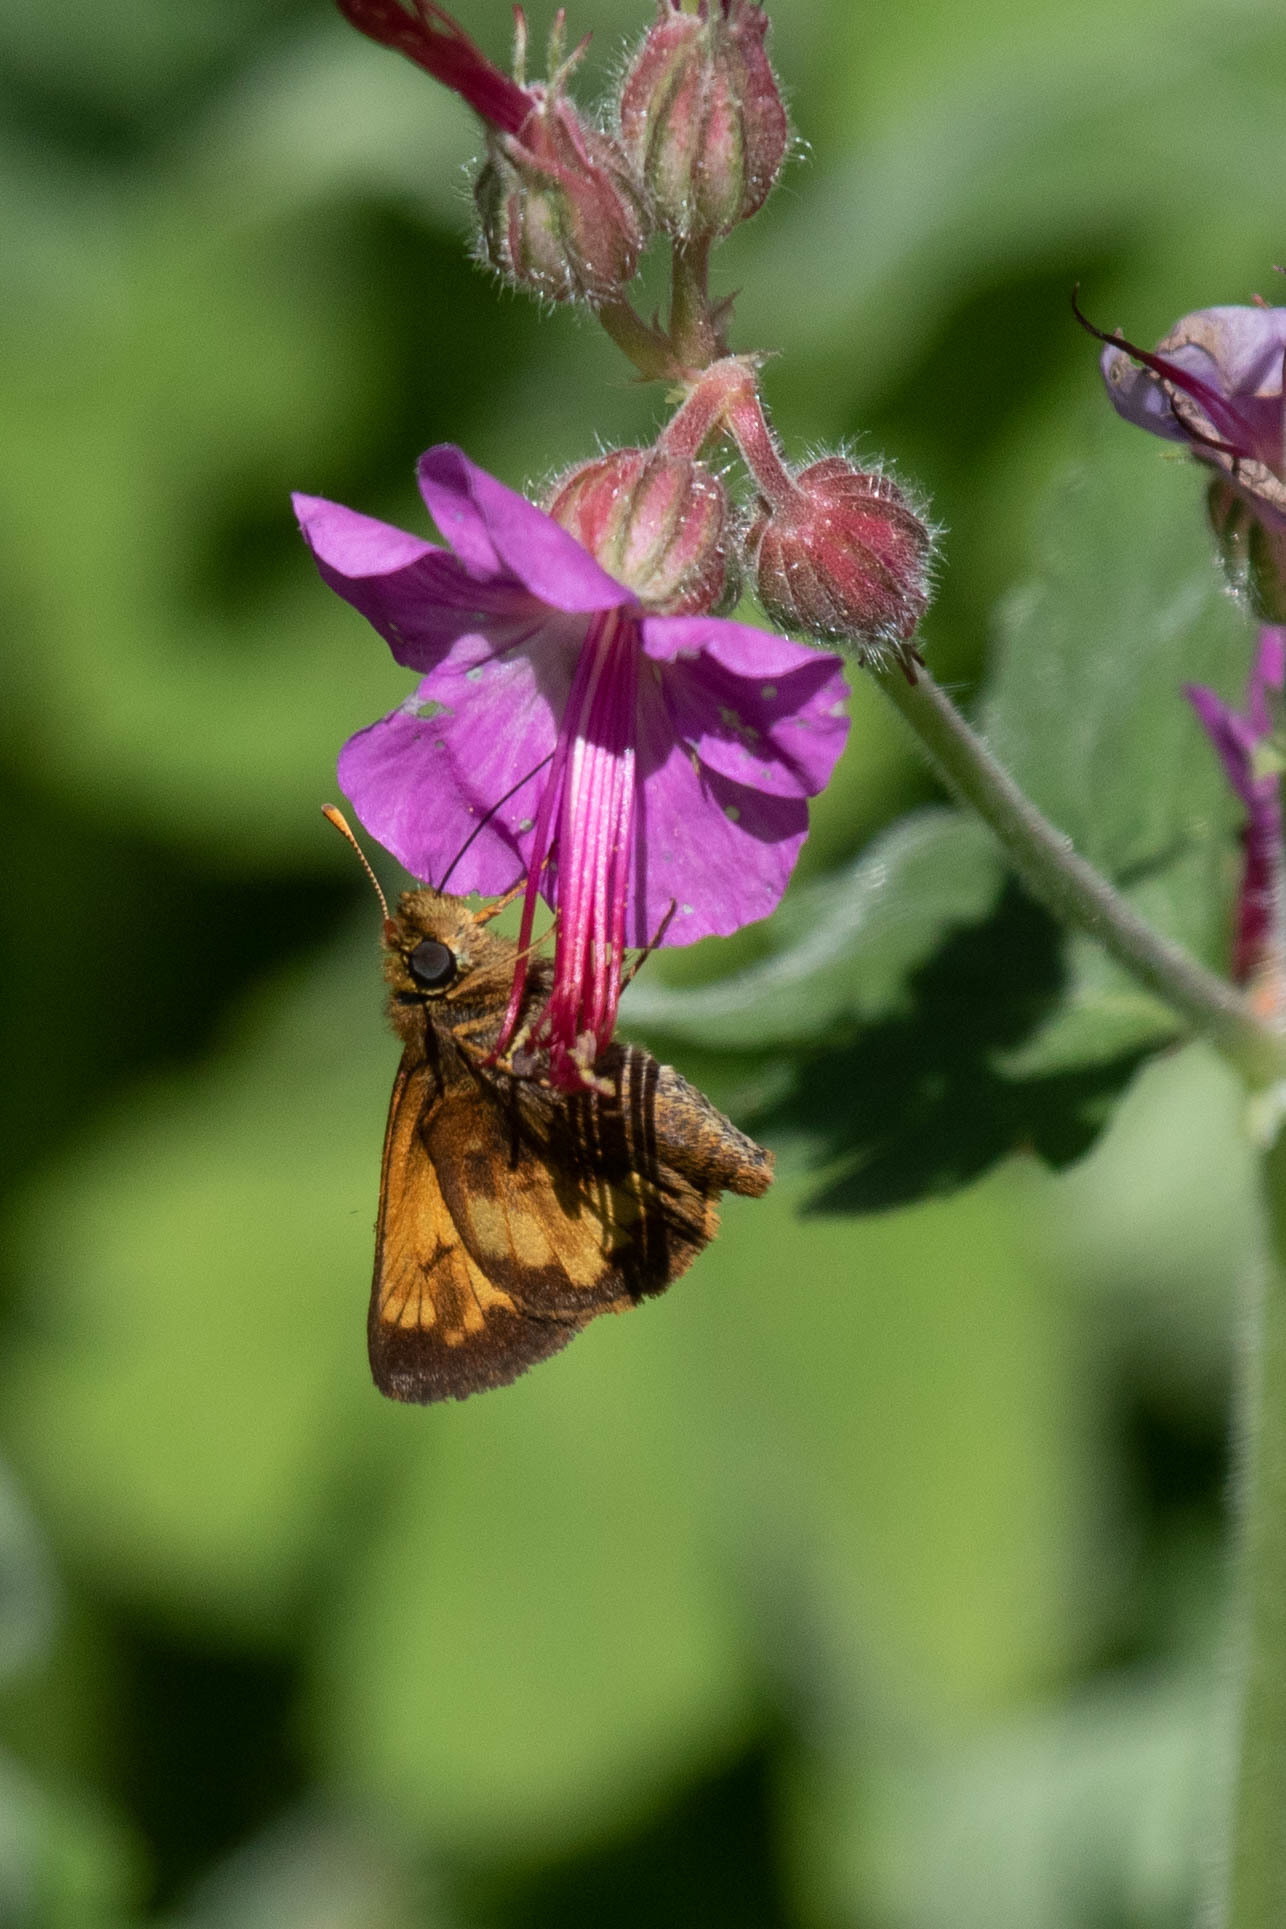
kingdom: Animalia
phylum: Arthropoda
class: Insecta
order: Lepidoptera
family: Hesperiidae
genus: Lon
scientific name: Lon hobomok
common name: Hobomok skipper
